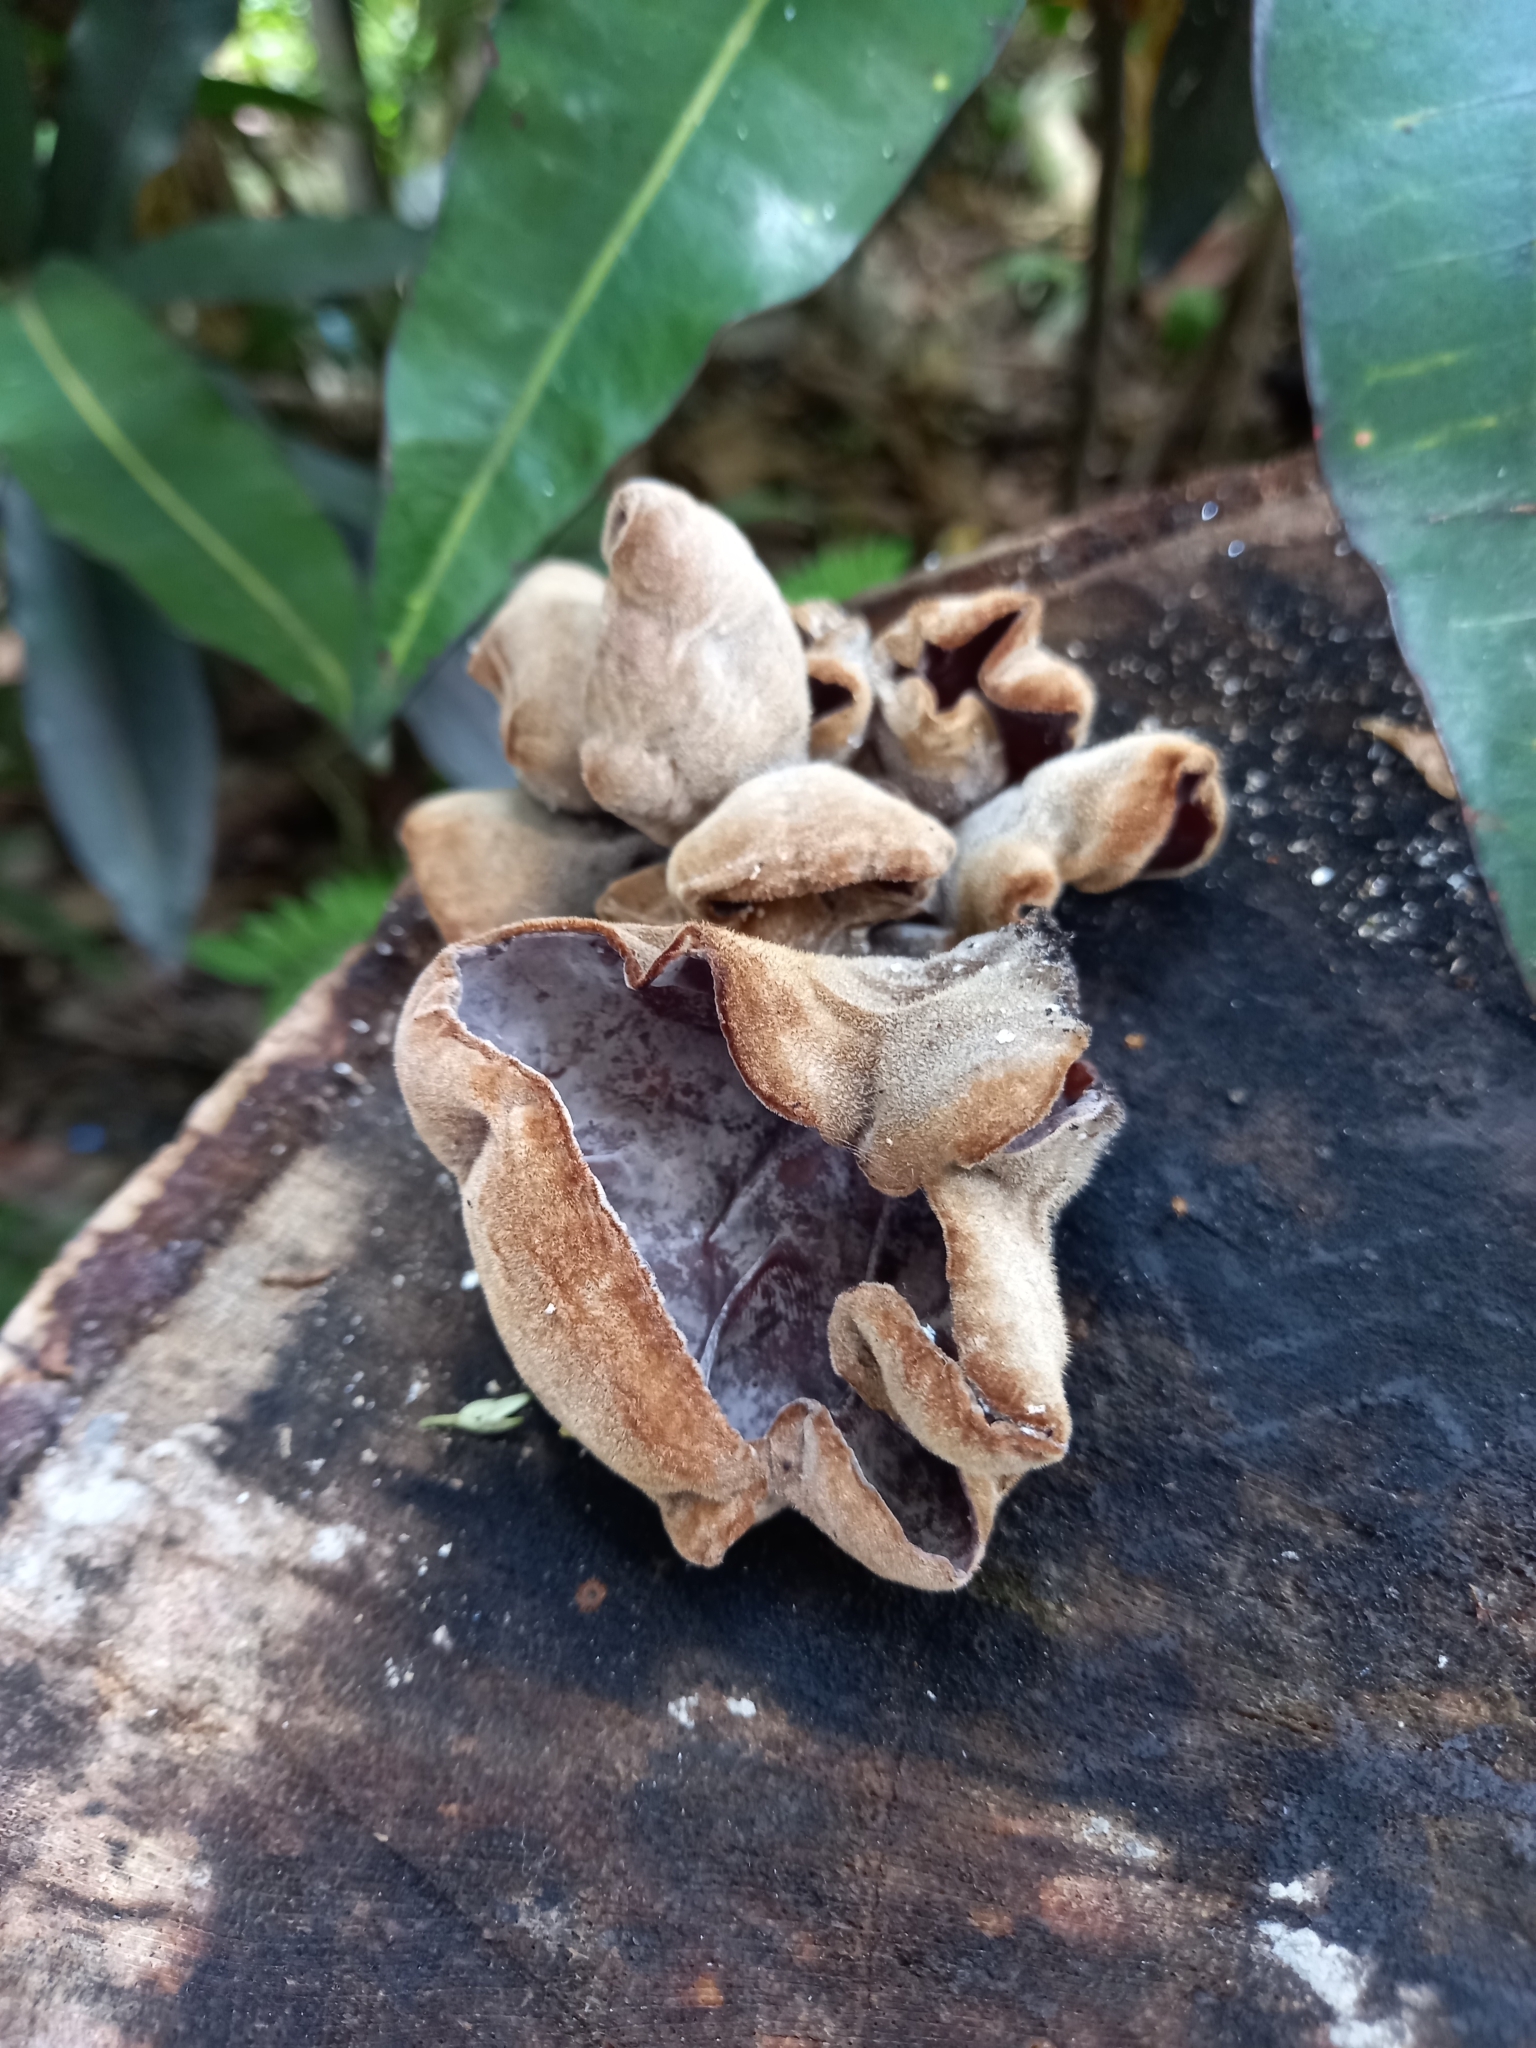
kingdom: Fungi
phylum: Basidiomycota
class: Agaricomycetes
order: Auriculariales
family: Auriculariaceae
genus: Auricularia
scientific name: Auricularia nigricans
